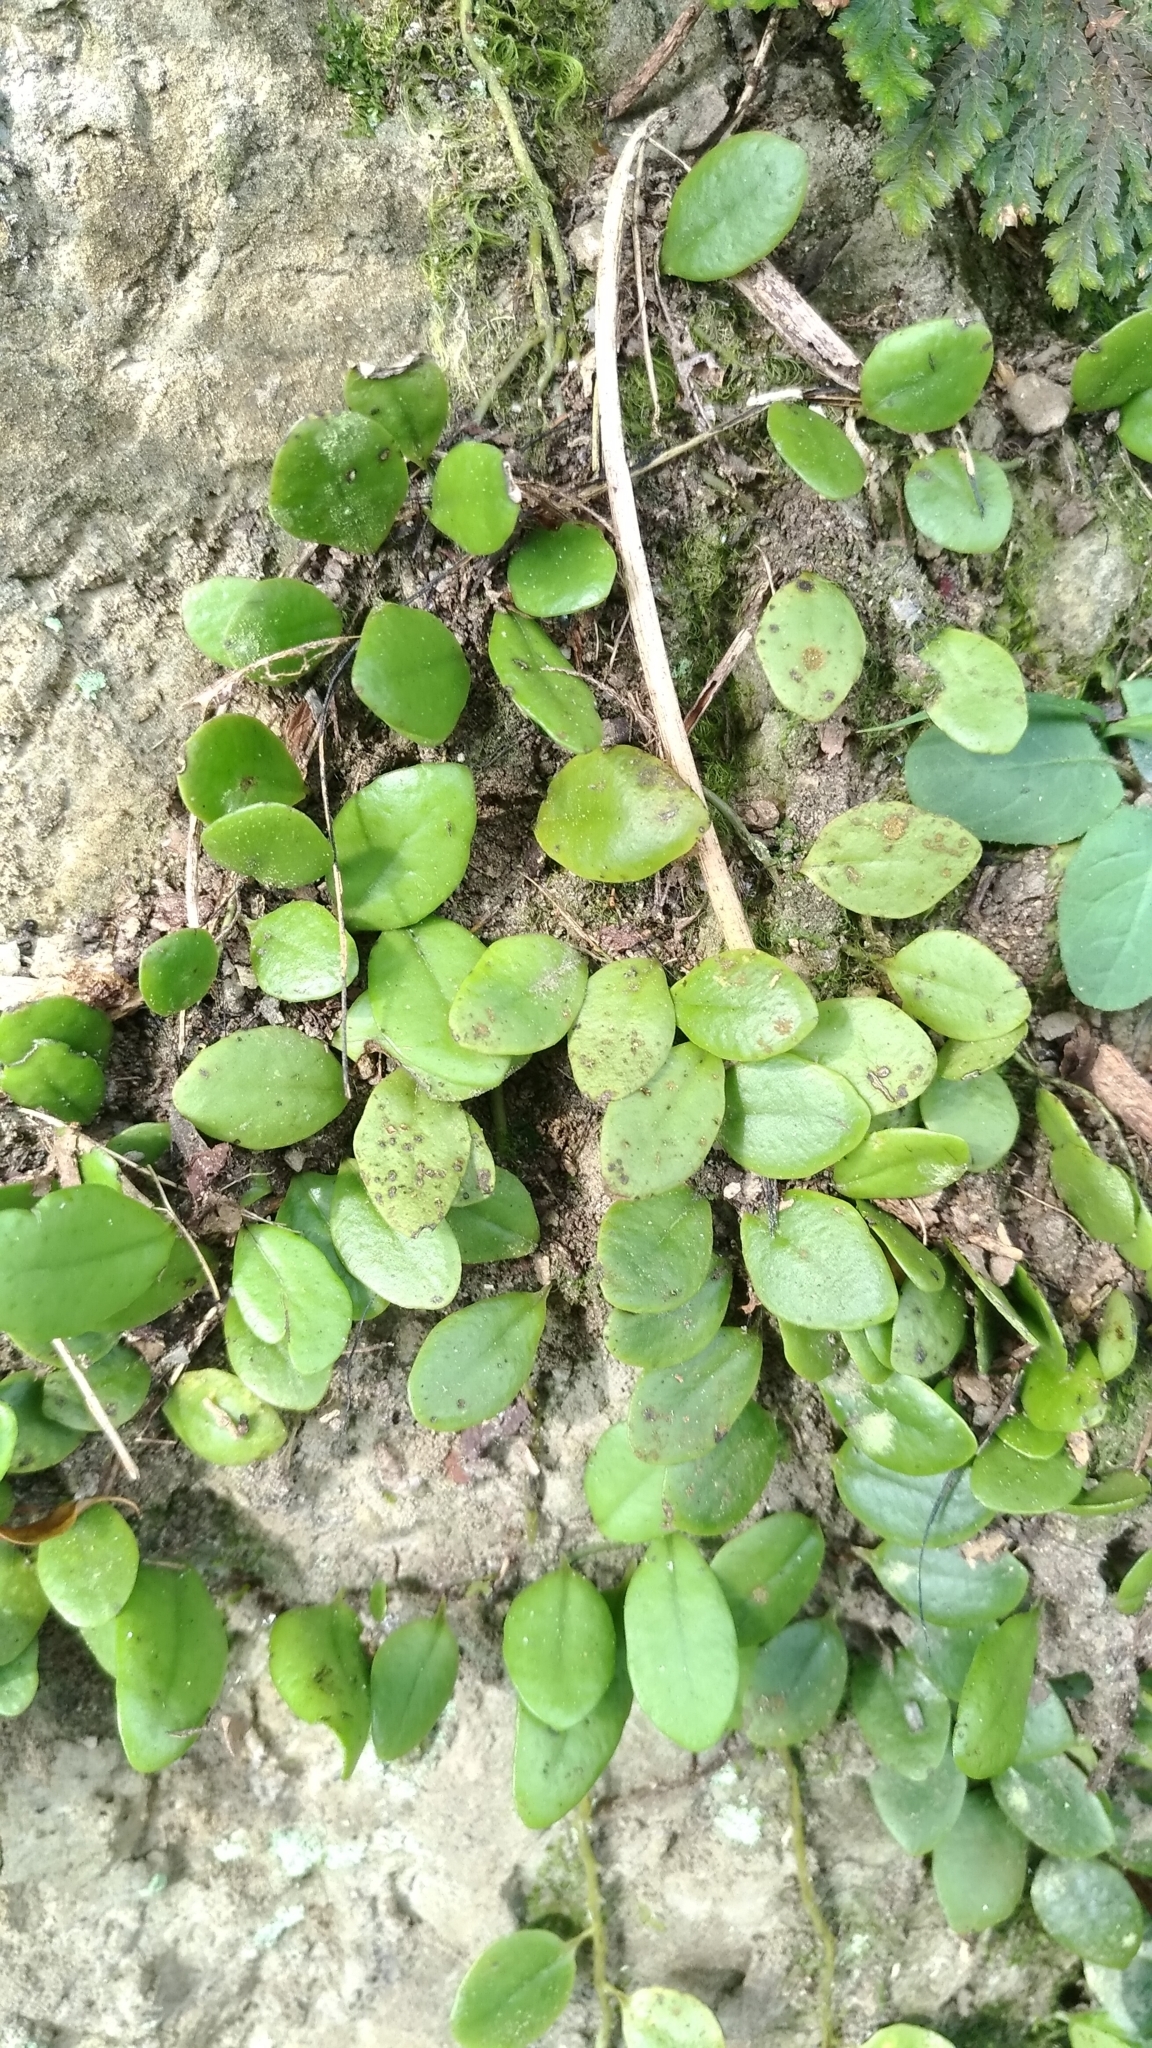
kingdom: Plantae
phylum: Tracheophyta
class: Polypodiopsida
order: Polypodiales
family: Polypodiaceae
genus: Lepisorus
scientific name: Lepisorus microphyllus
